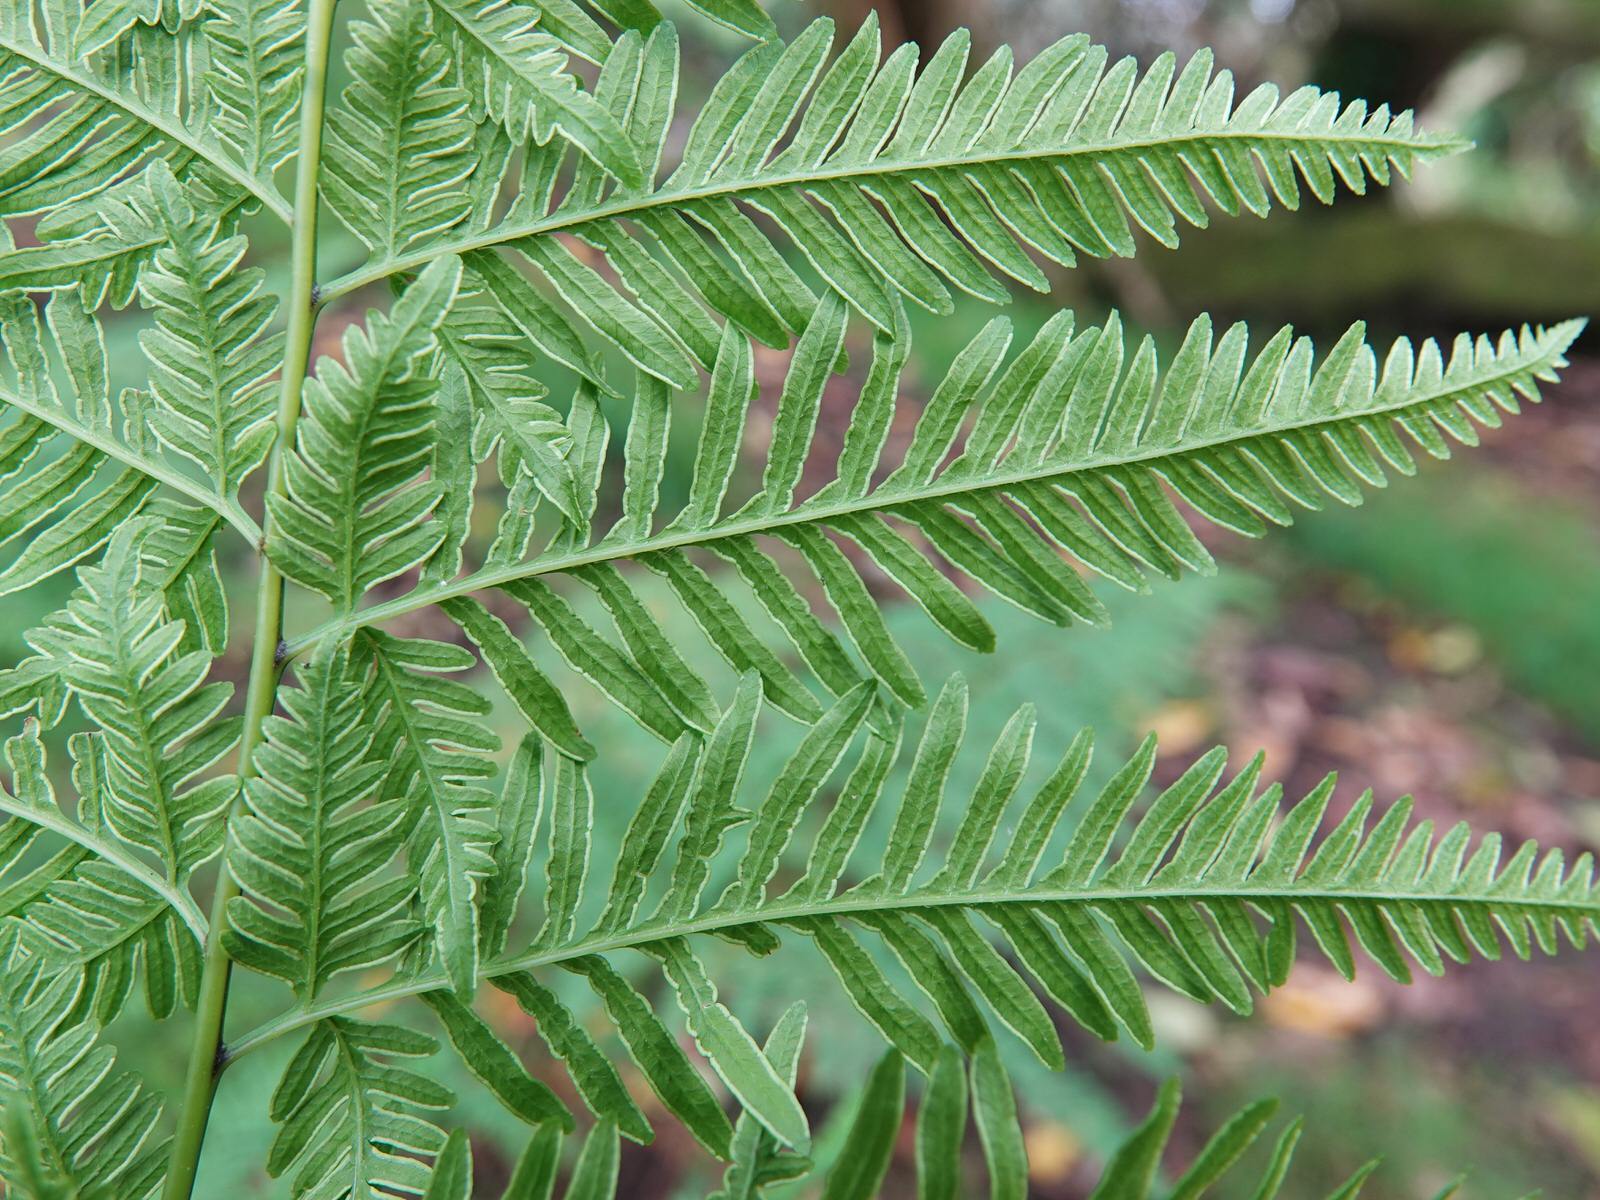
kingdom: Plantae
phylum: Tracheophyta
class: Polypodiopsida
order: Polypodiales
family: Pteridaceae
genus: Pteris
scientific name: Pteris tremula
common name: Australian brake
